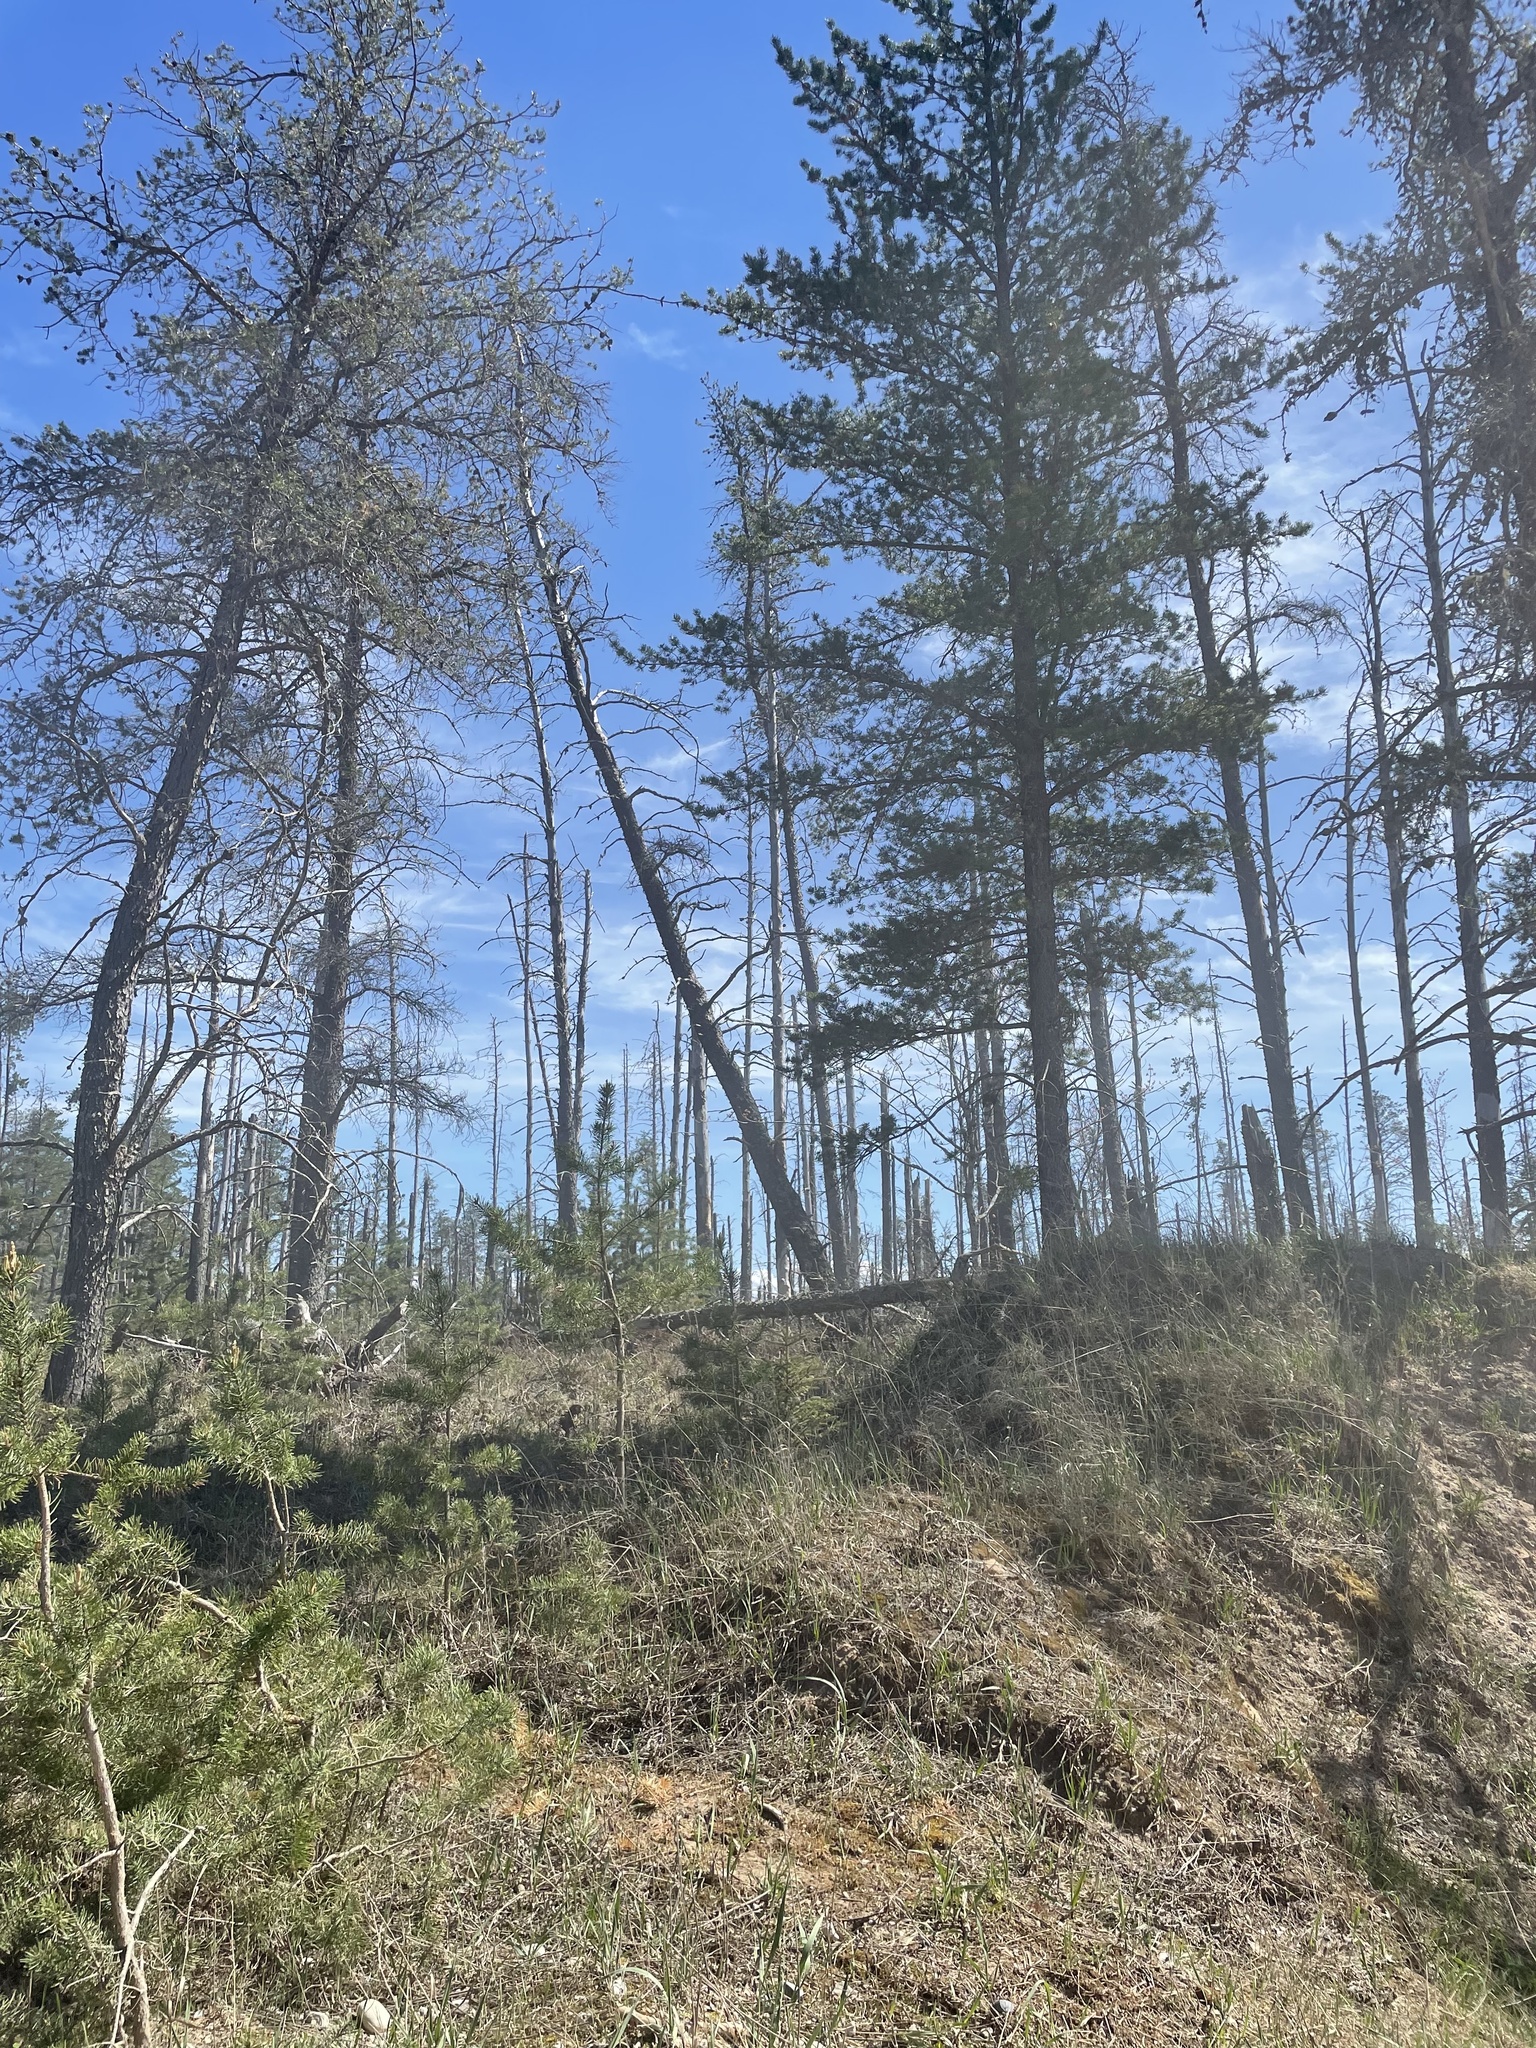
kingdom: Plantae
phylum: Tracheophyta
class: Pinopsida
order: Pinales
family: Pinaceae
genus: Pinus
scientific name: Pinus banksiana
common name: Jack pine
